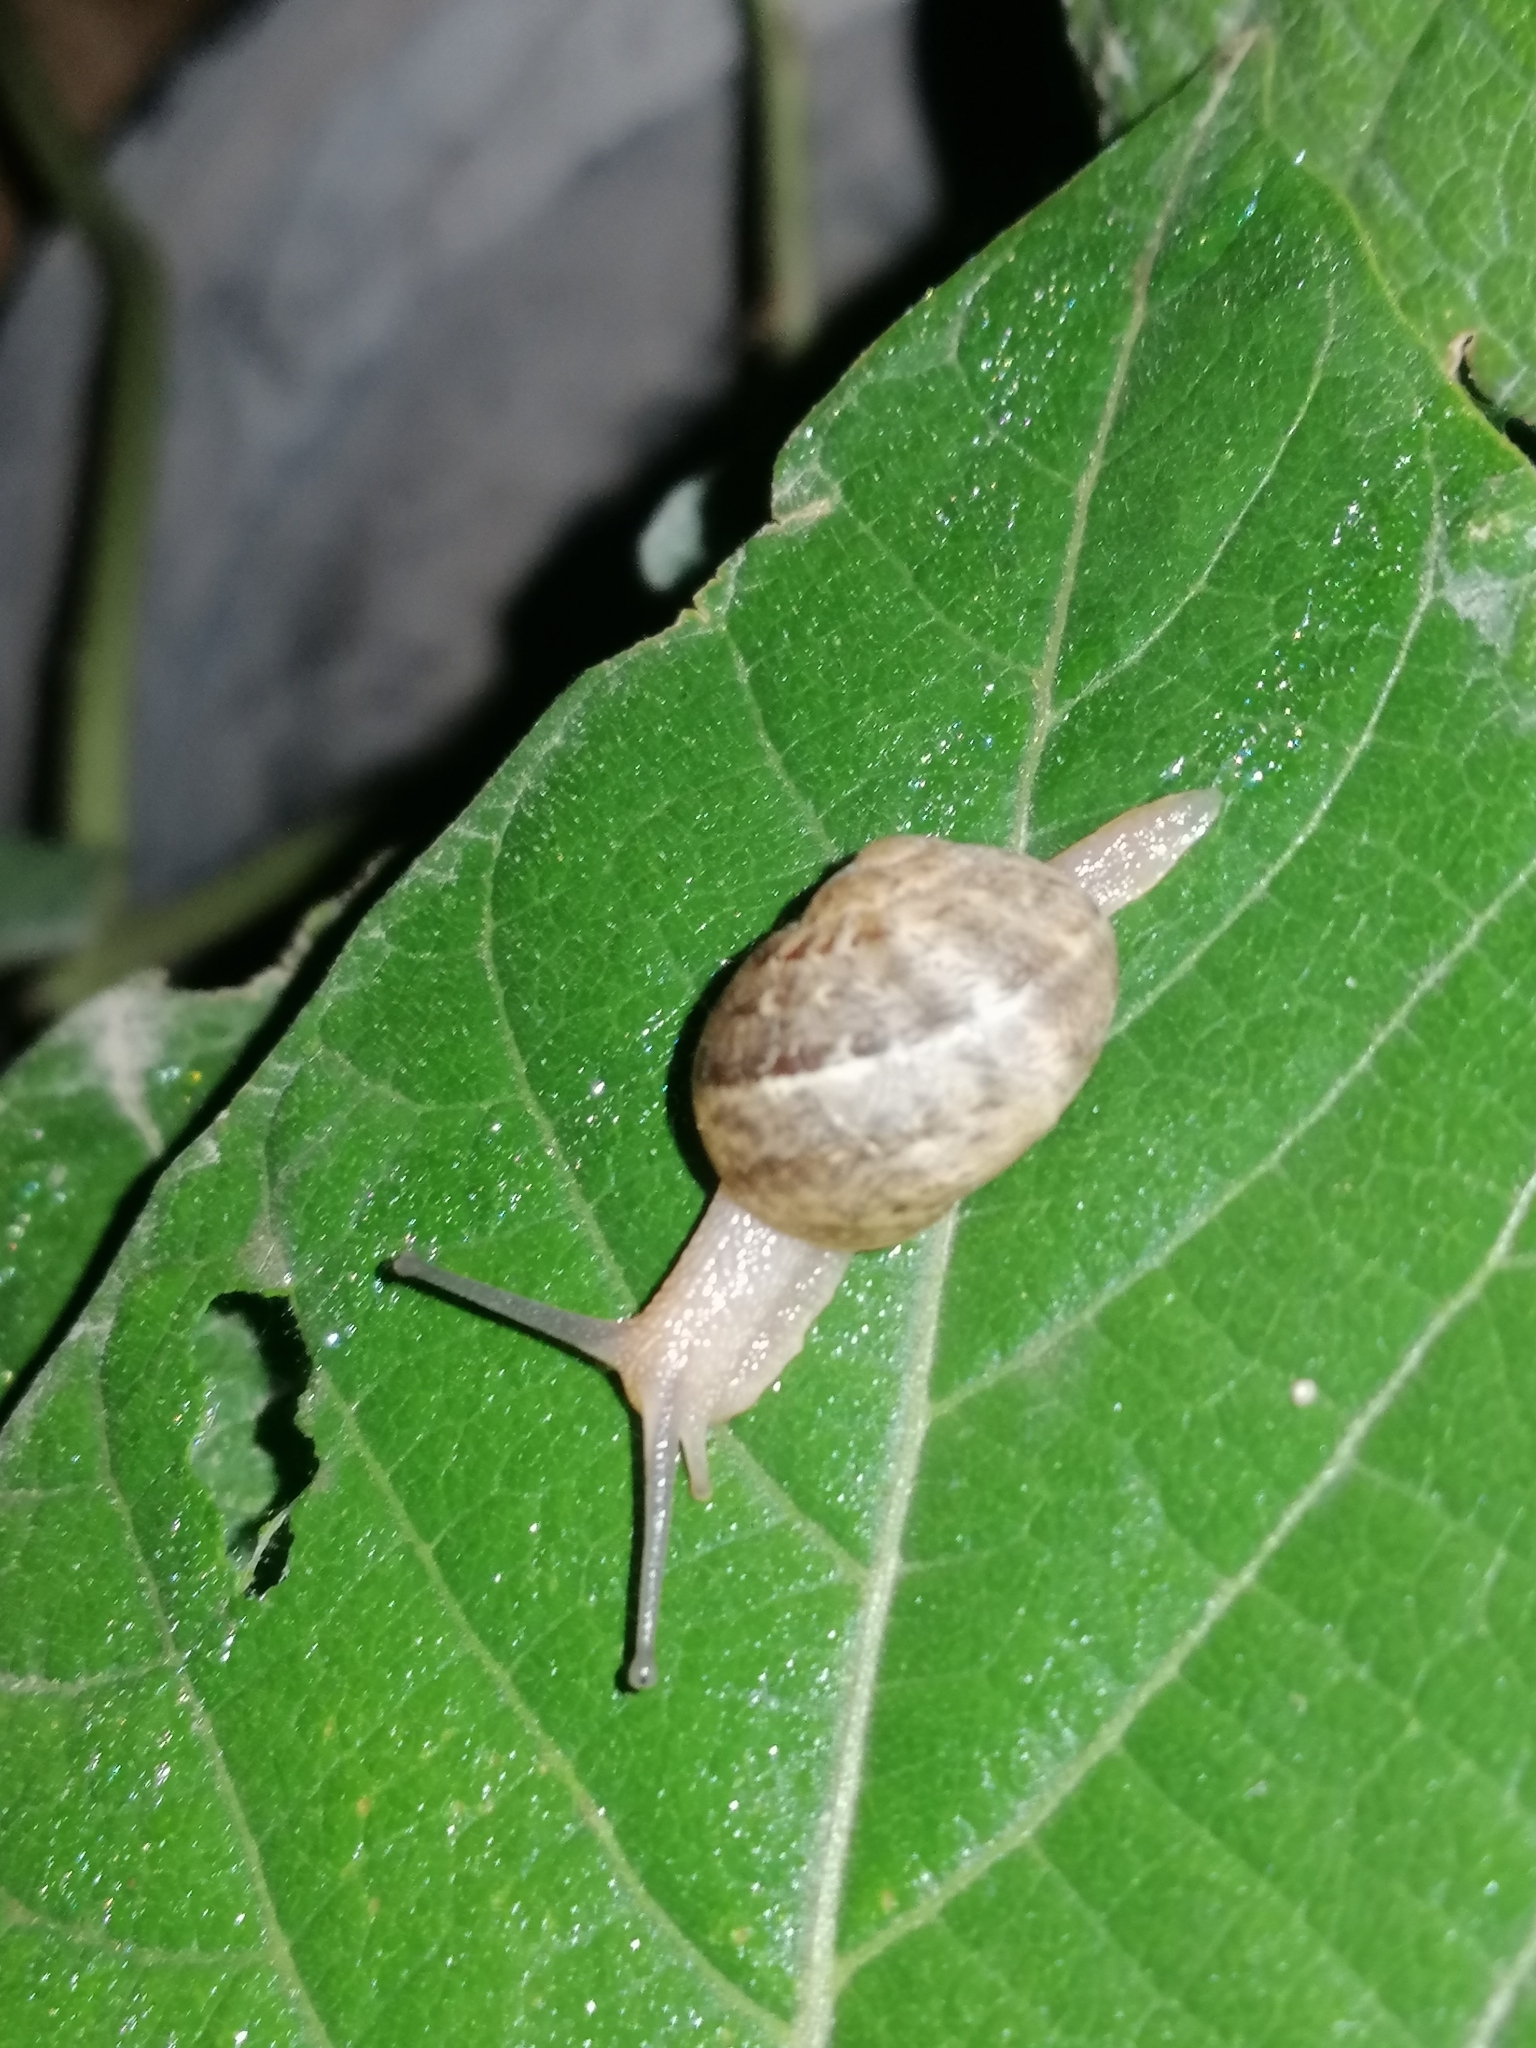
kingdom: Animalia
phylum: Mollusca
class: Gastropoda
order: Stylommatophora
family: Helicidae
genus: Cornu
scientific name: Cornu aspersum
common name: Brown garden snail
